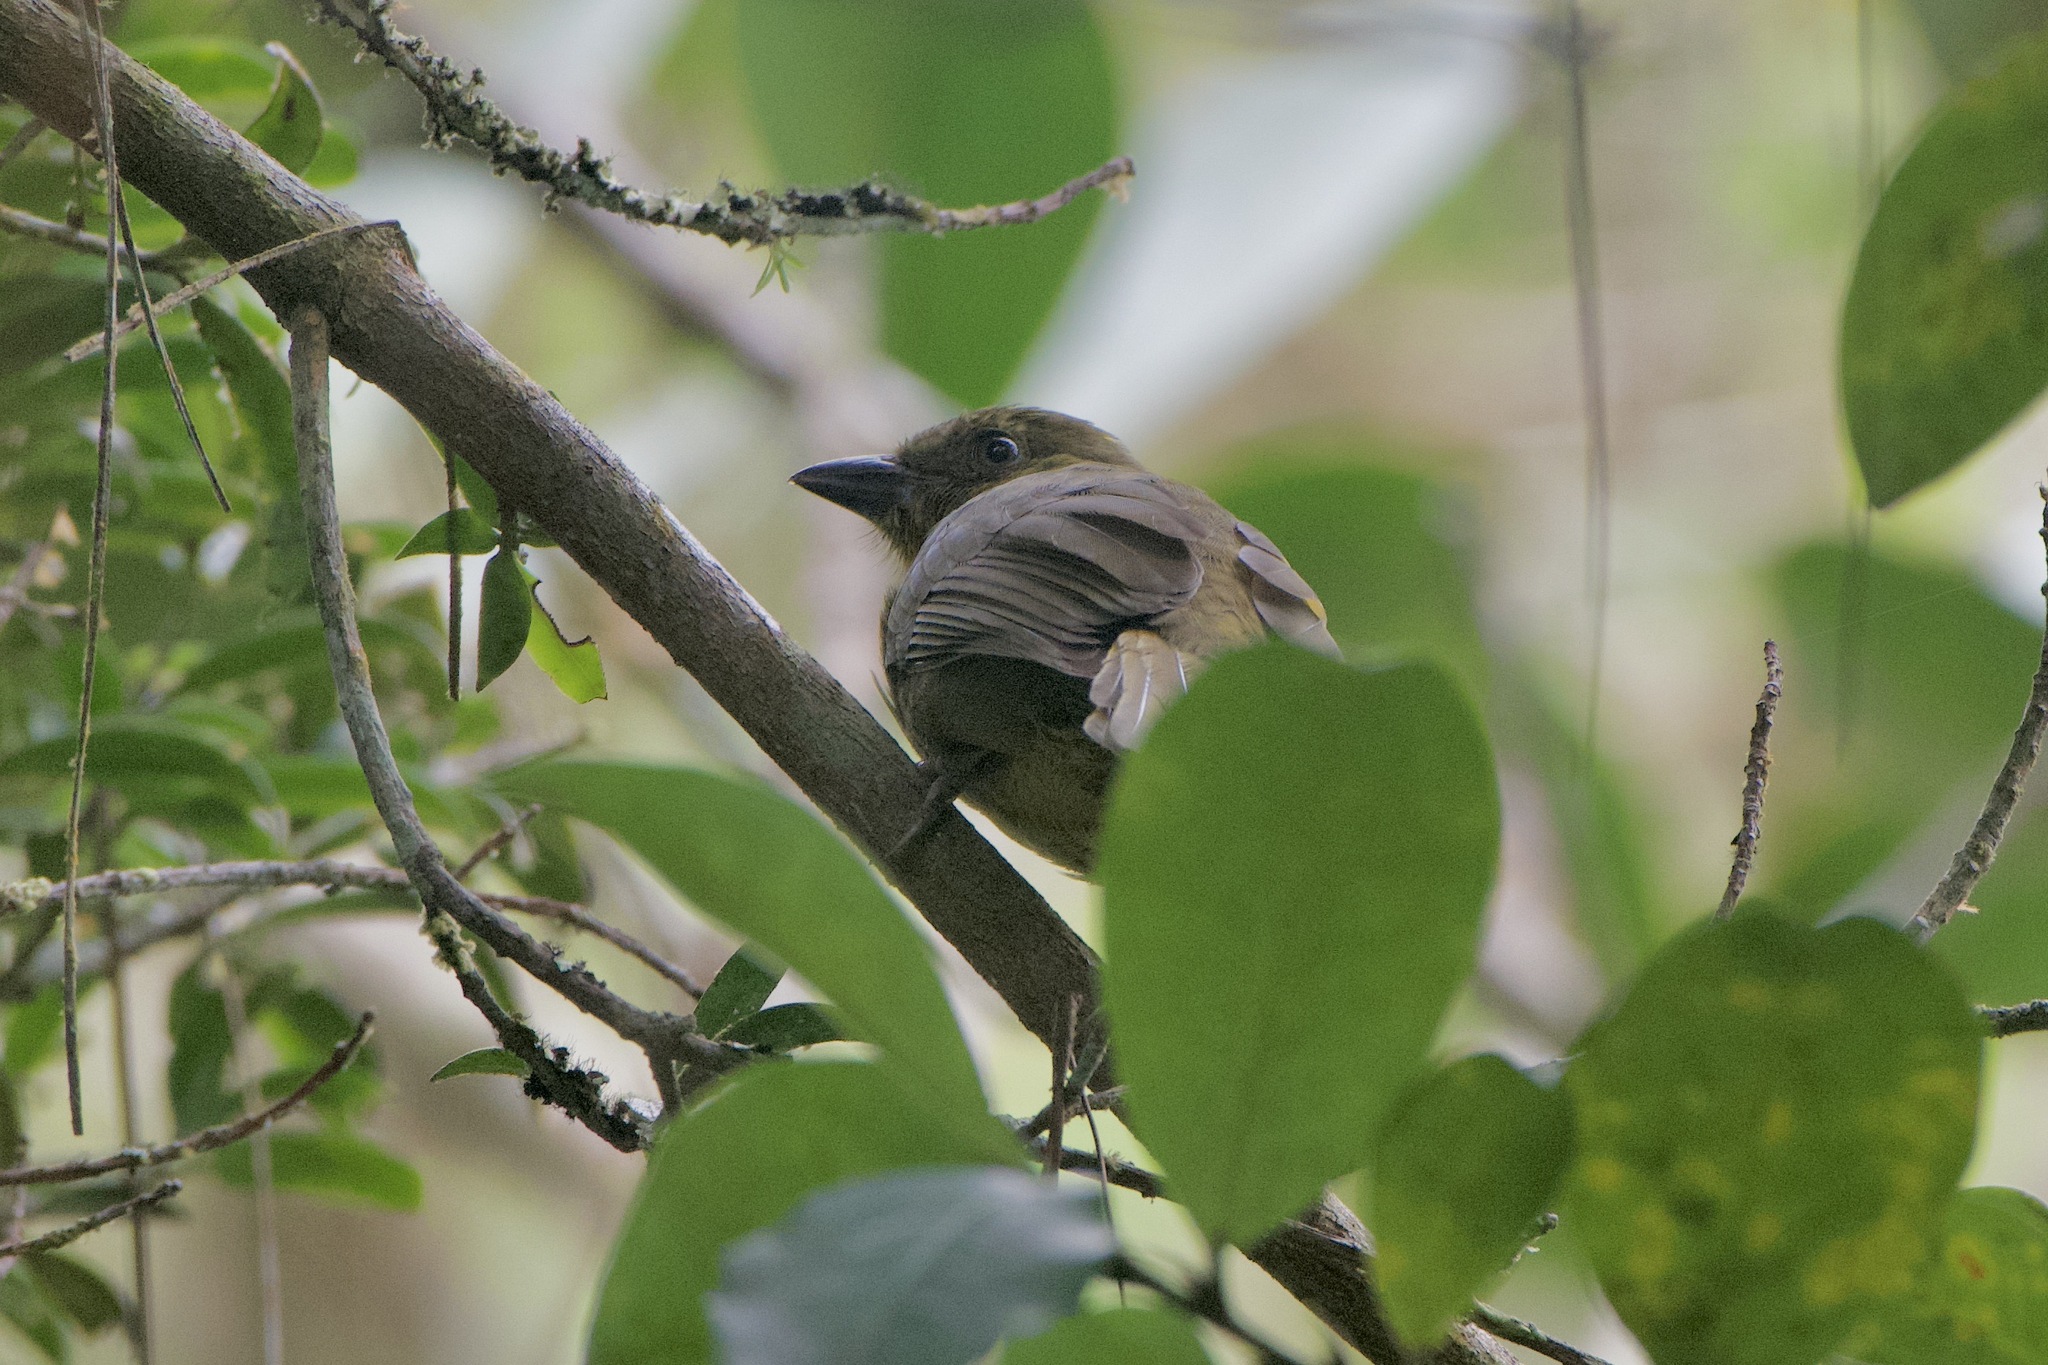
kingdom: Animalia
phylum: Chordata
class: Aves
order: Passeriformes
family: Cardinalidae
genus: Habia
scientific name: Habia rubica
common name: Red-crowned ant-tanager
